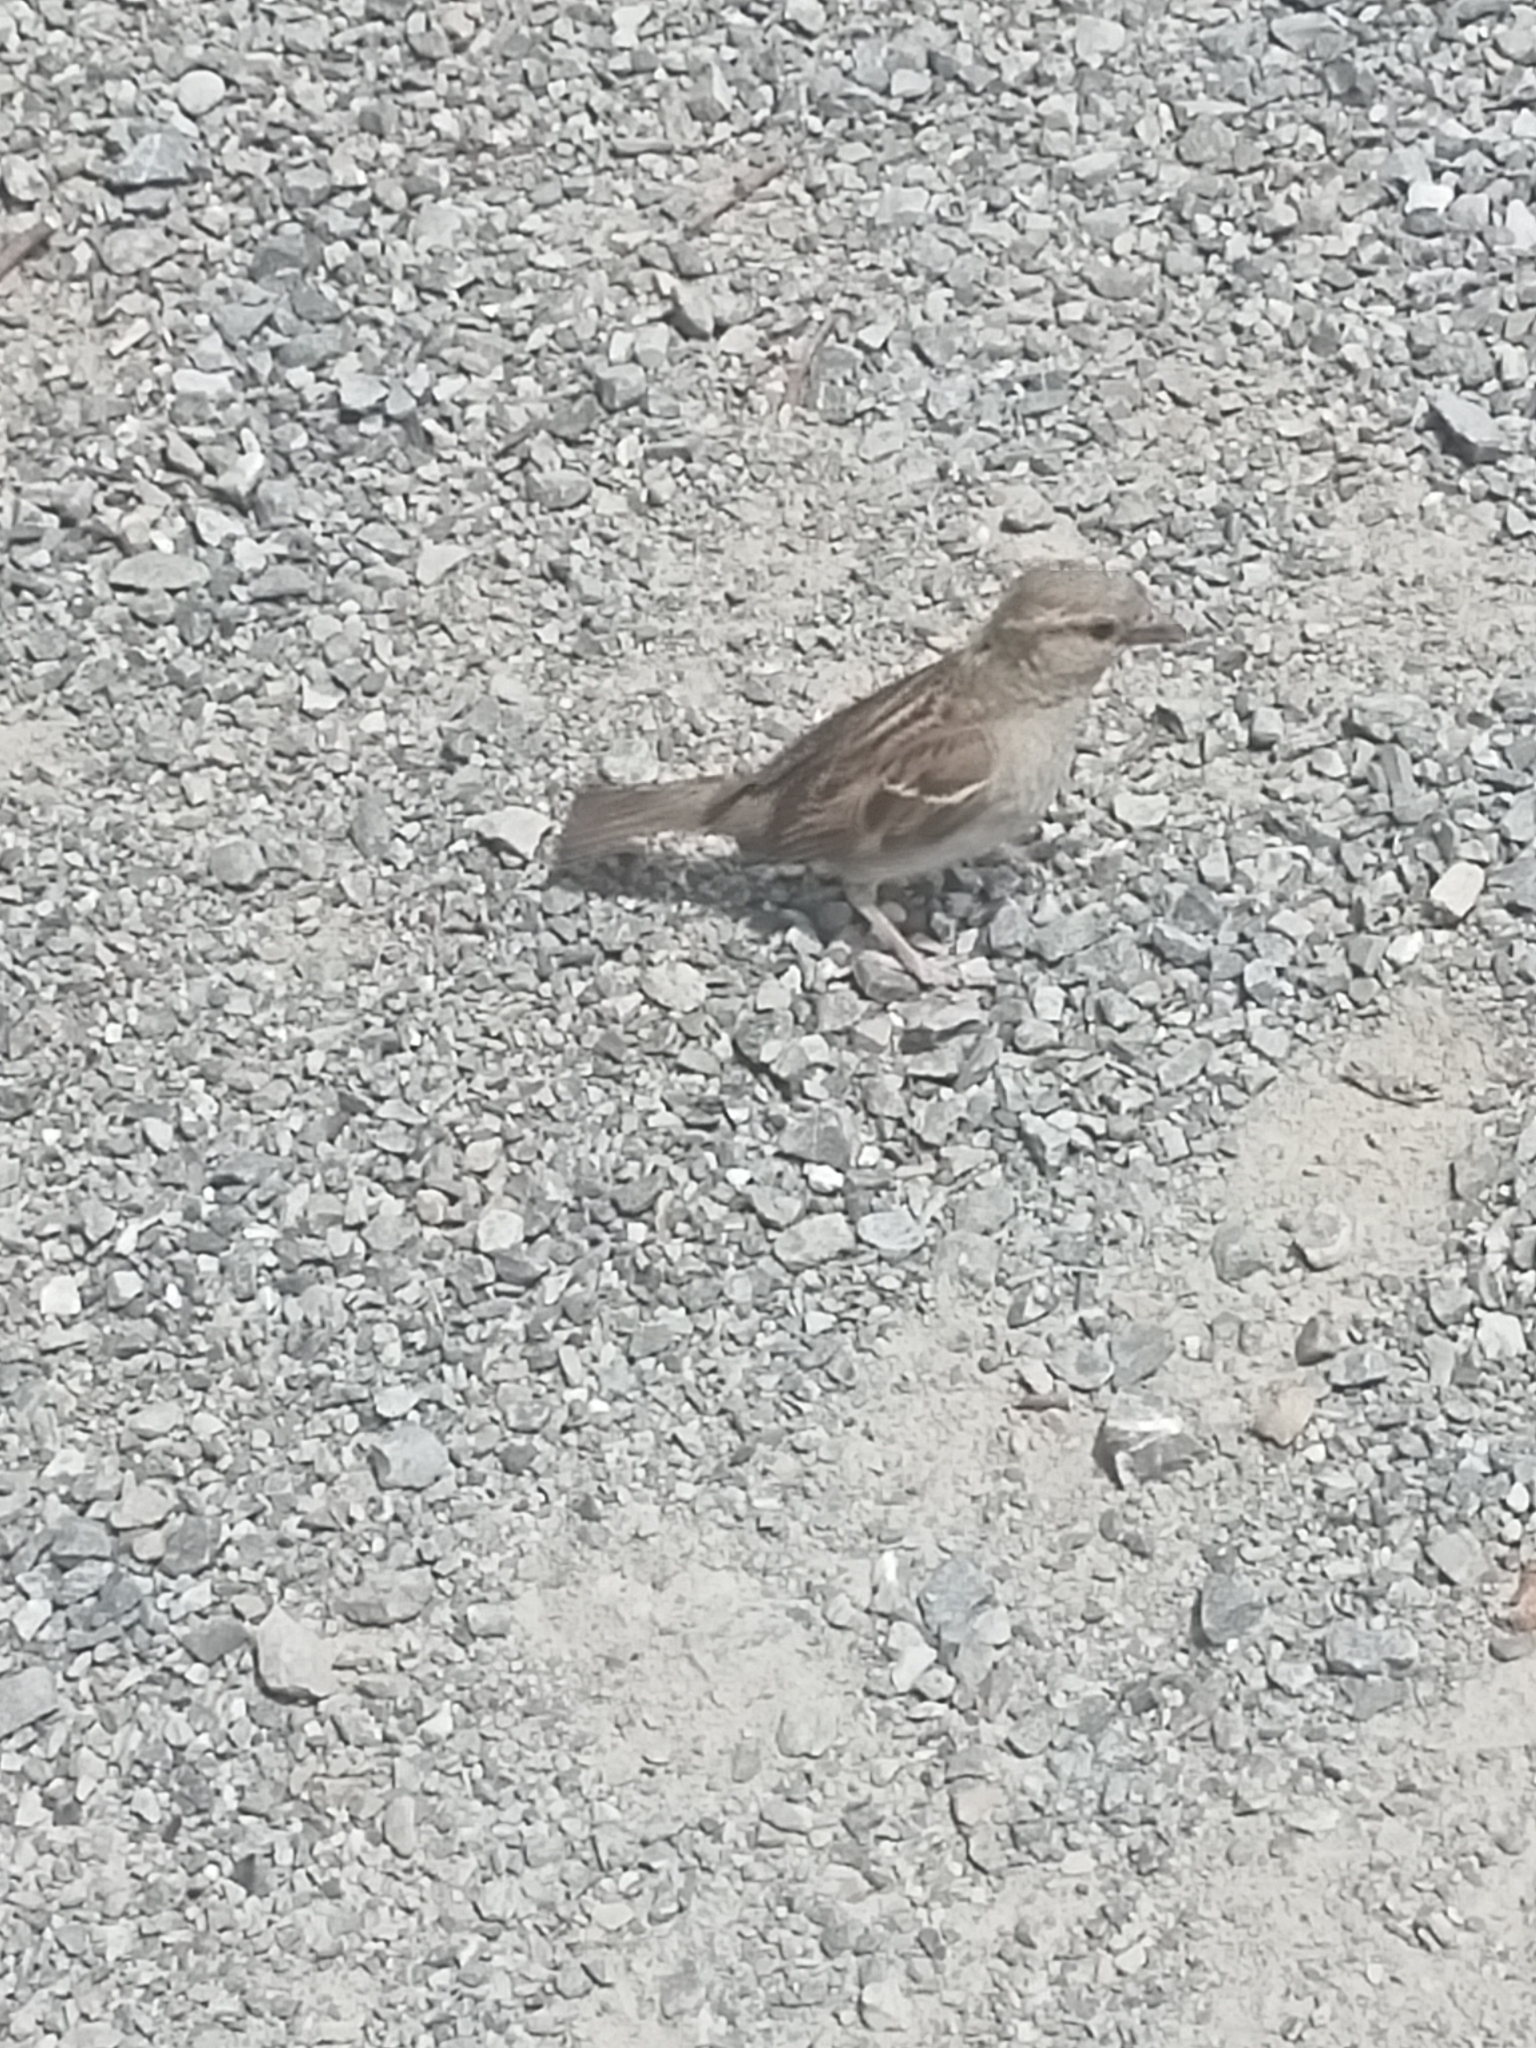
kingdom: Animalia
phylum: Chordata
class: Aves
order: Passeriformes
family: Passeridae
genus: Passer
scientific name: Passer domesticus
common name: House sparrow
